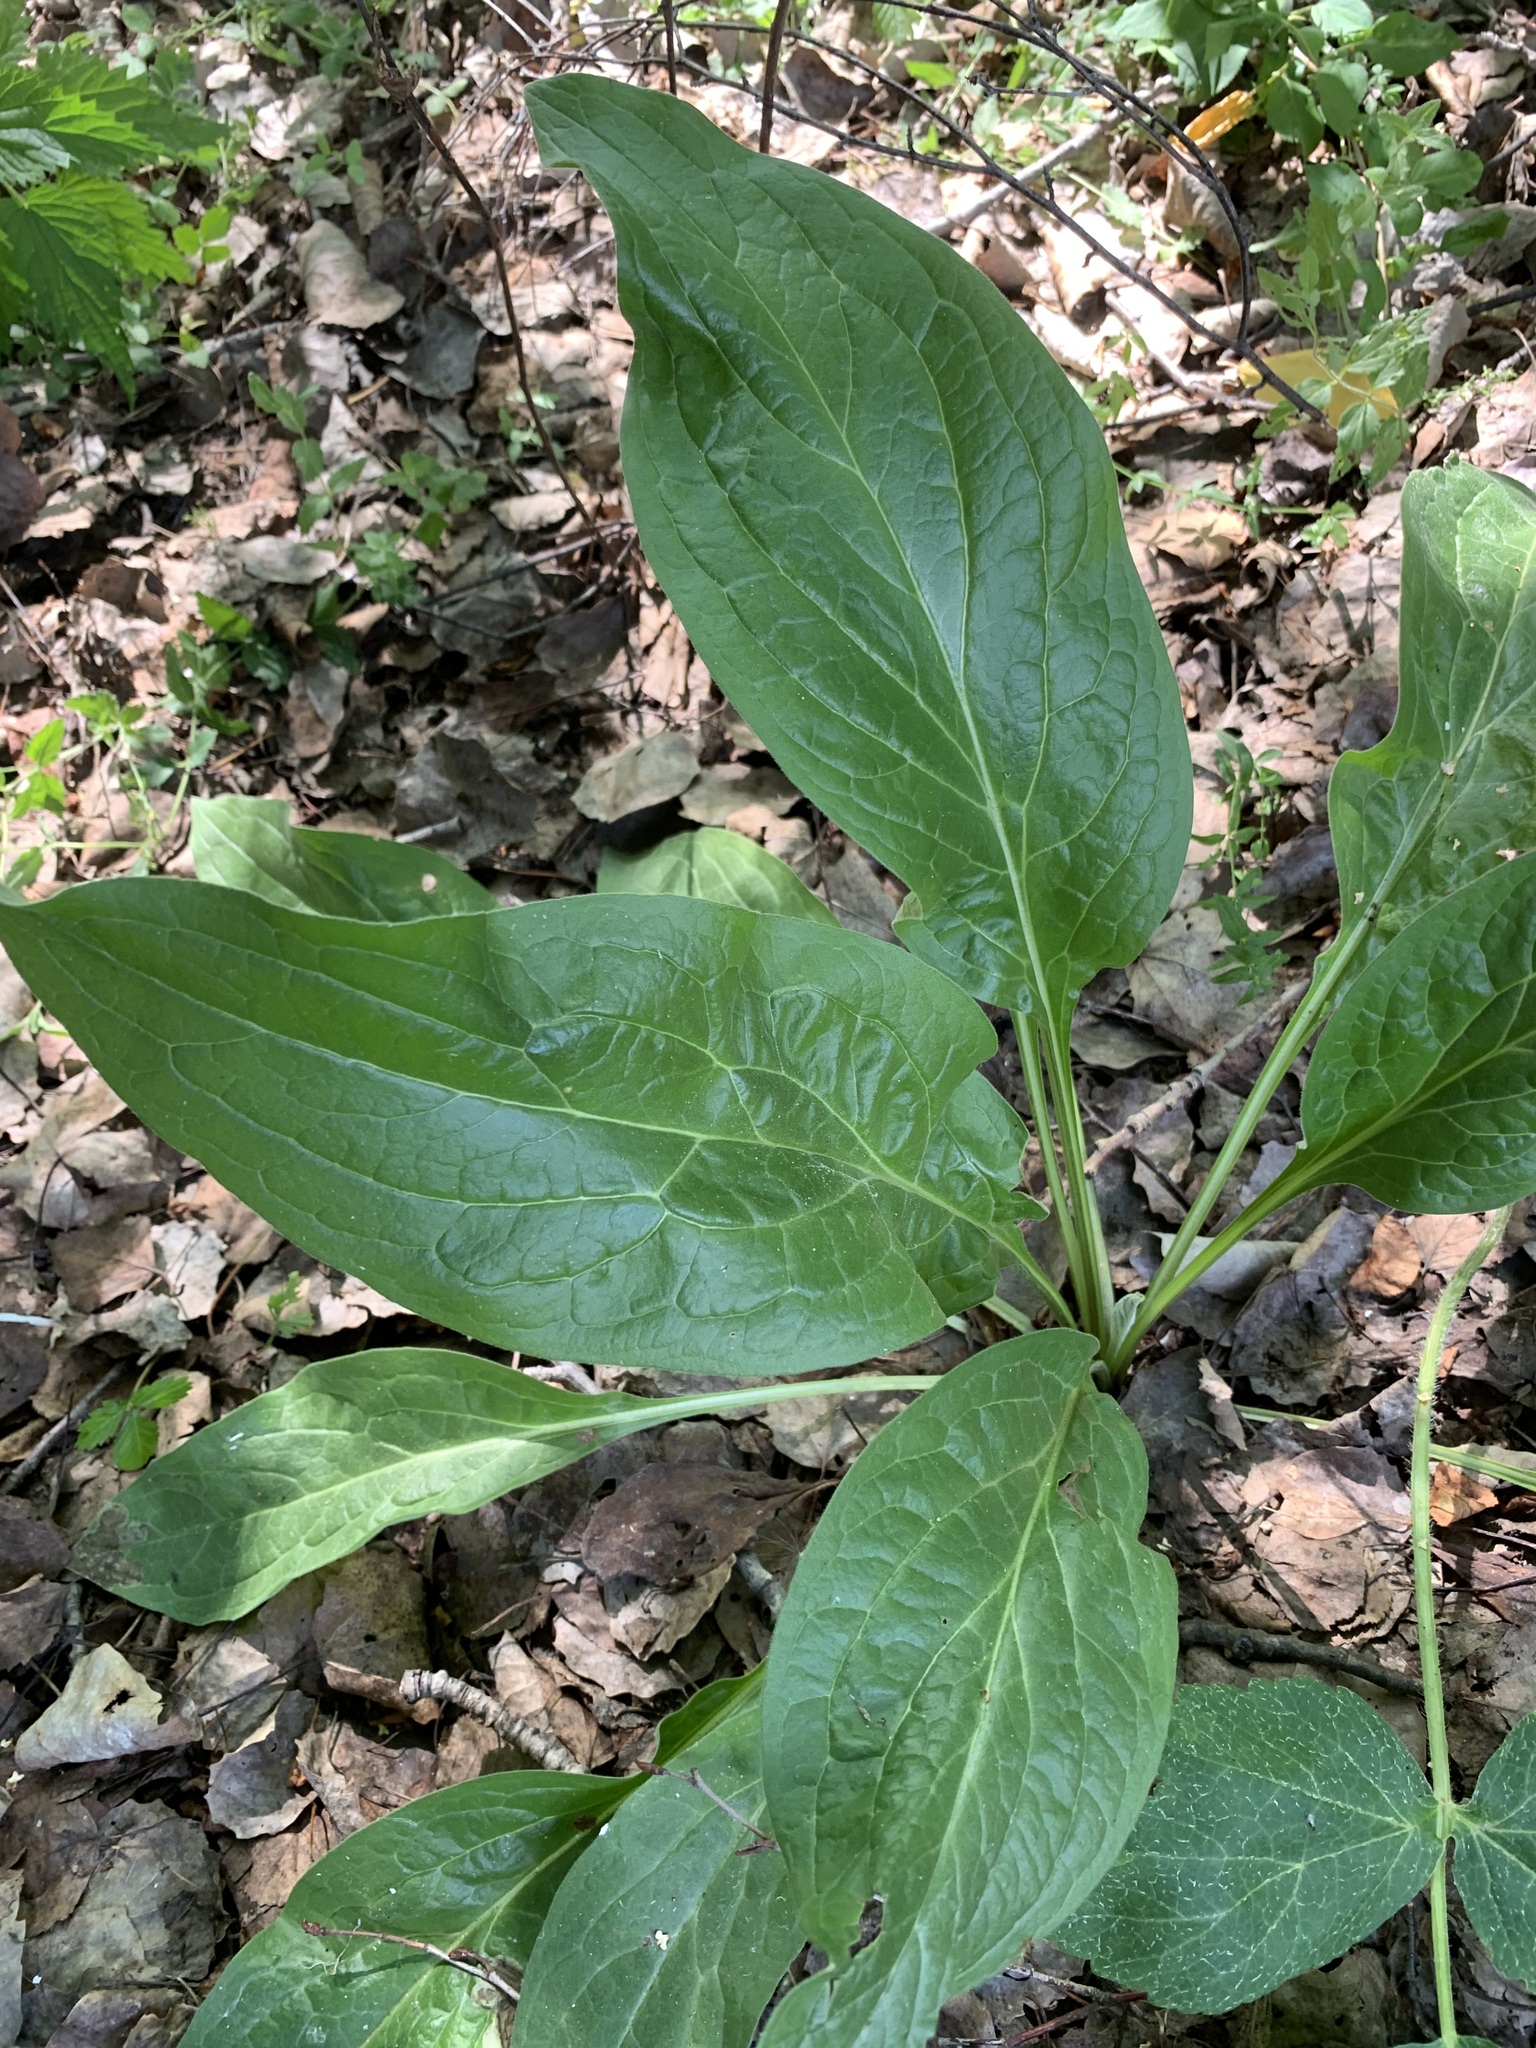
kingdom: Plantae
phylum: Tracheophyta
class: Magnoliopsida
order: Boraginales
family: Boraginaceae
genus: Cynoglossum
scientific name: Cynoglossum officinale
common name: Hound's-tongue
